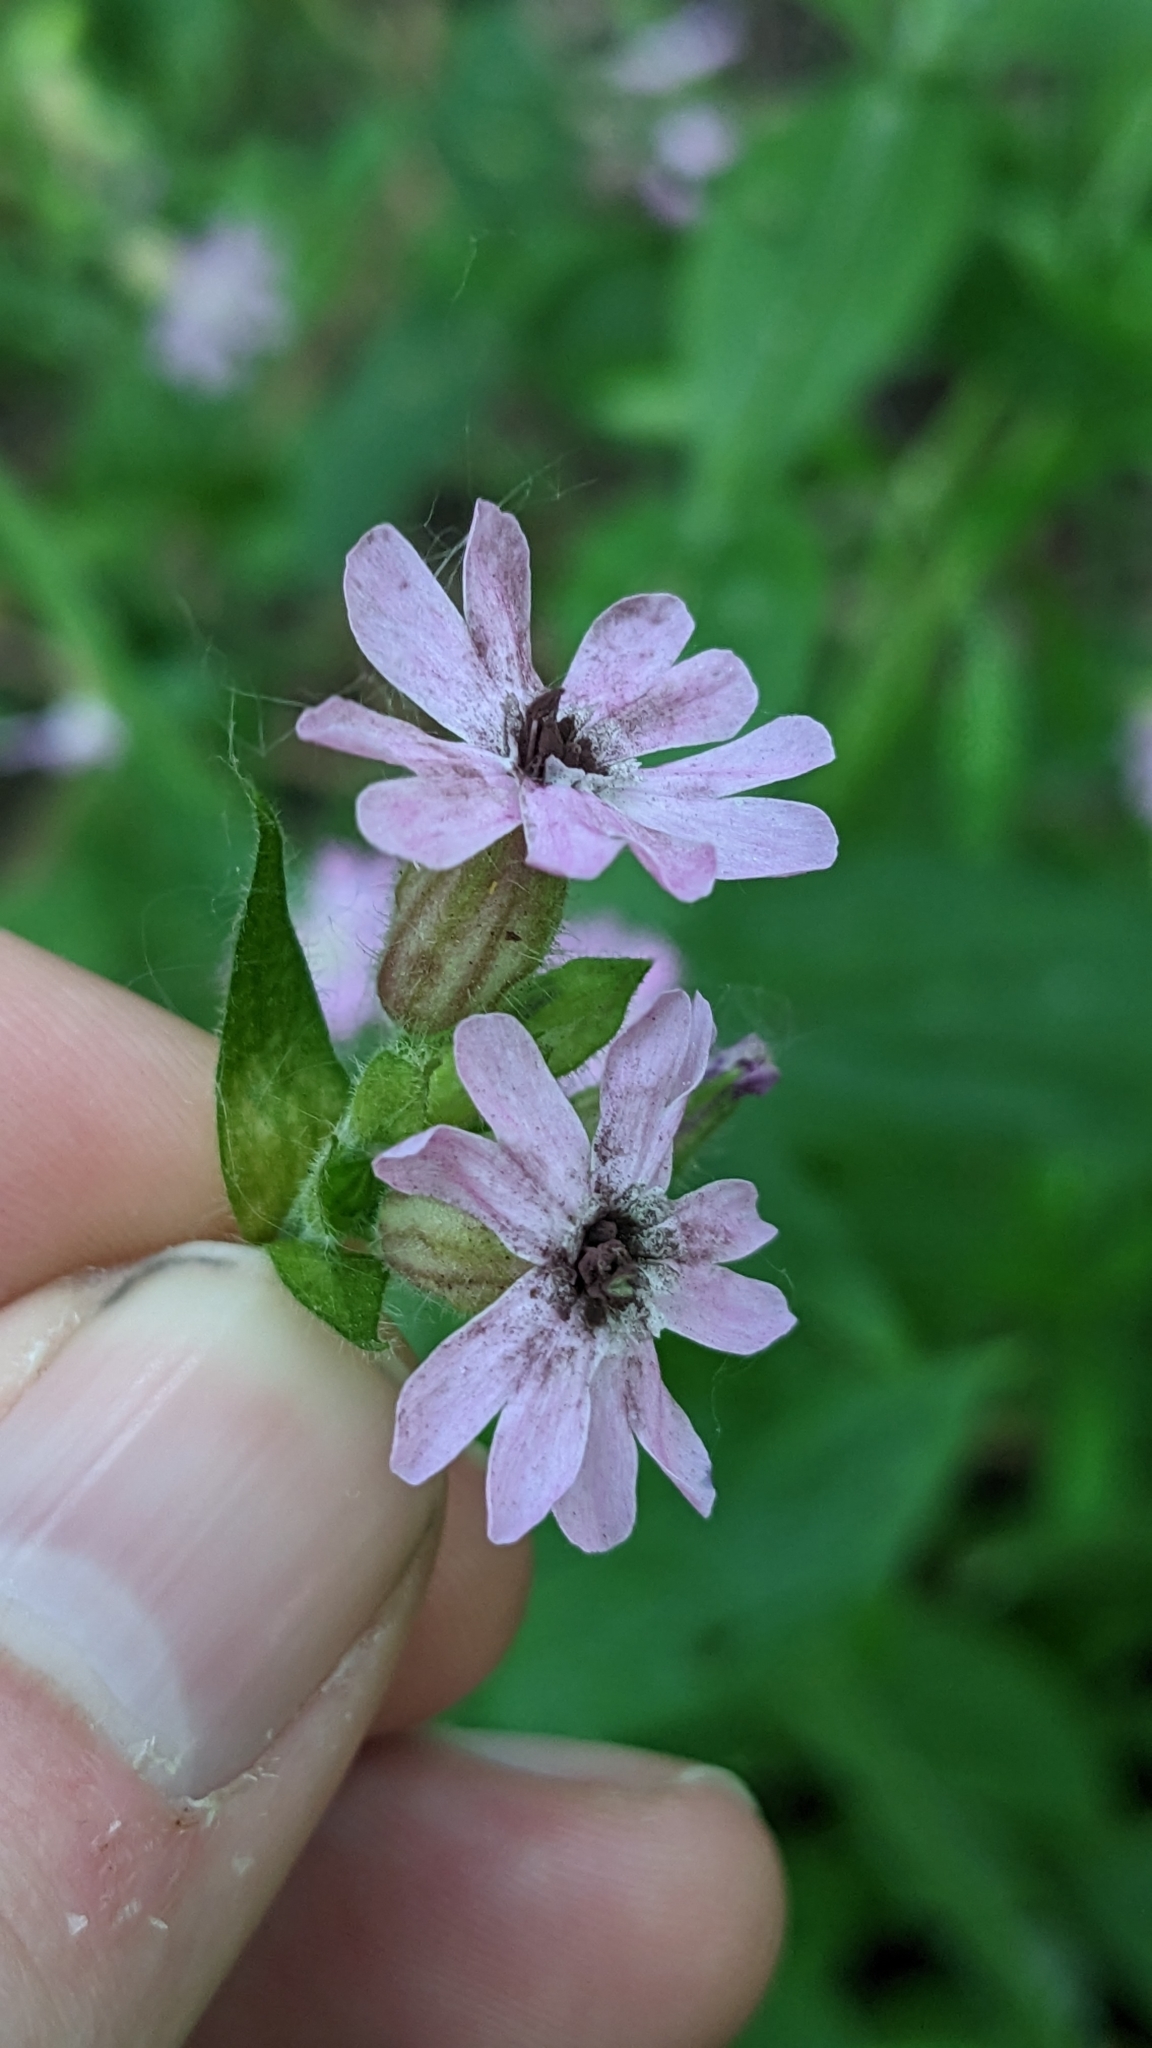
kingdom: Fungi
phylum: Basidiomycota
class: Microbotryomycetes
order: Microbotryales
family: Microbotryaceae
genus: Microbotryum
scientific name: Microbotryum silenes-dioicae
